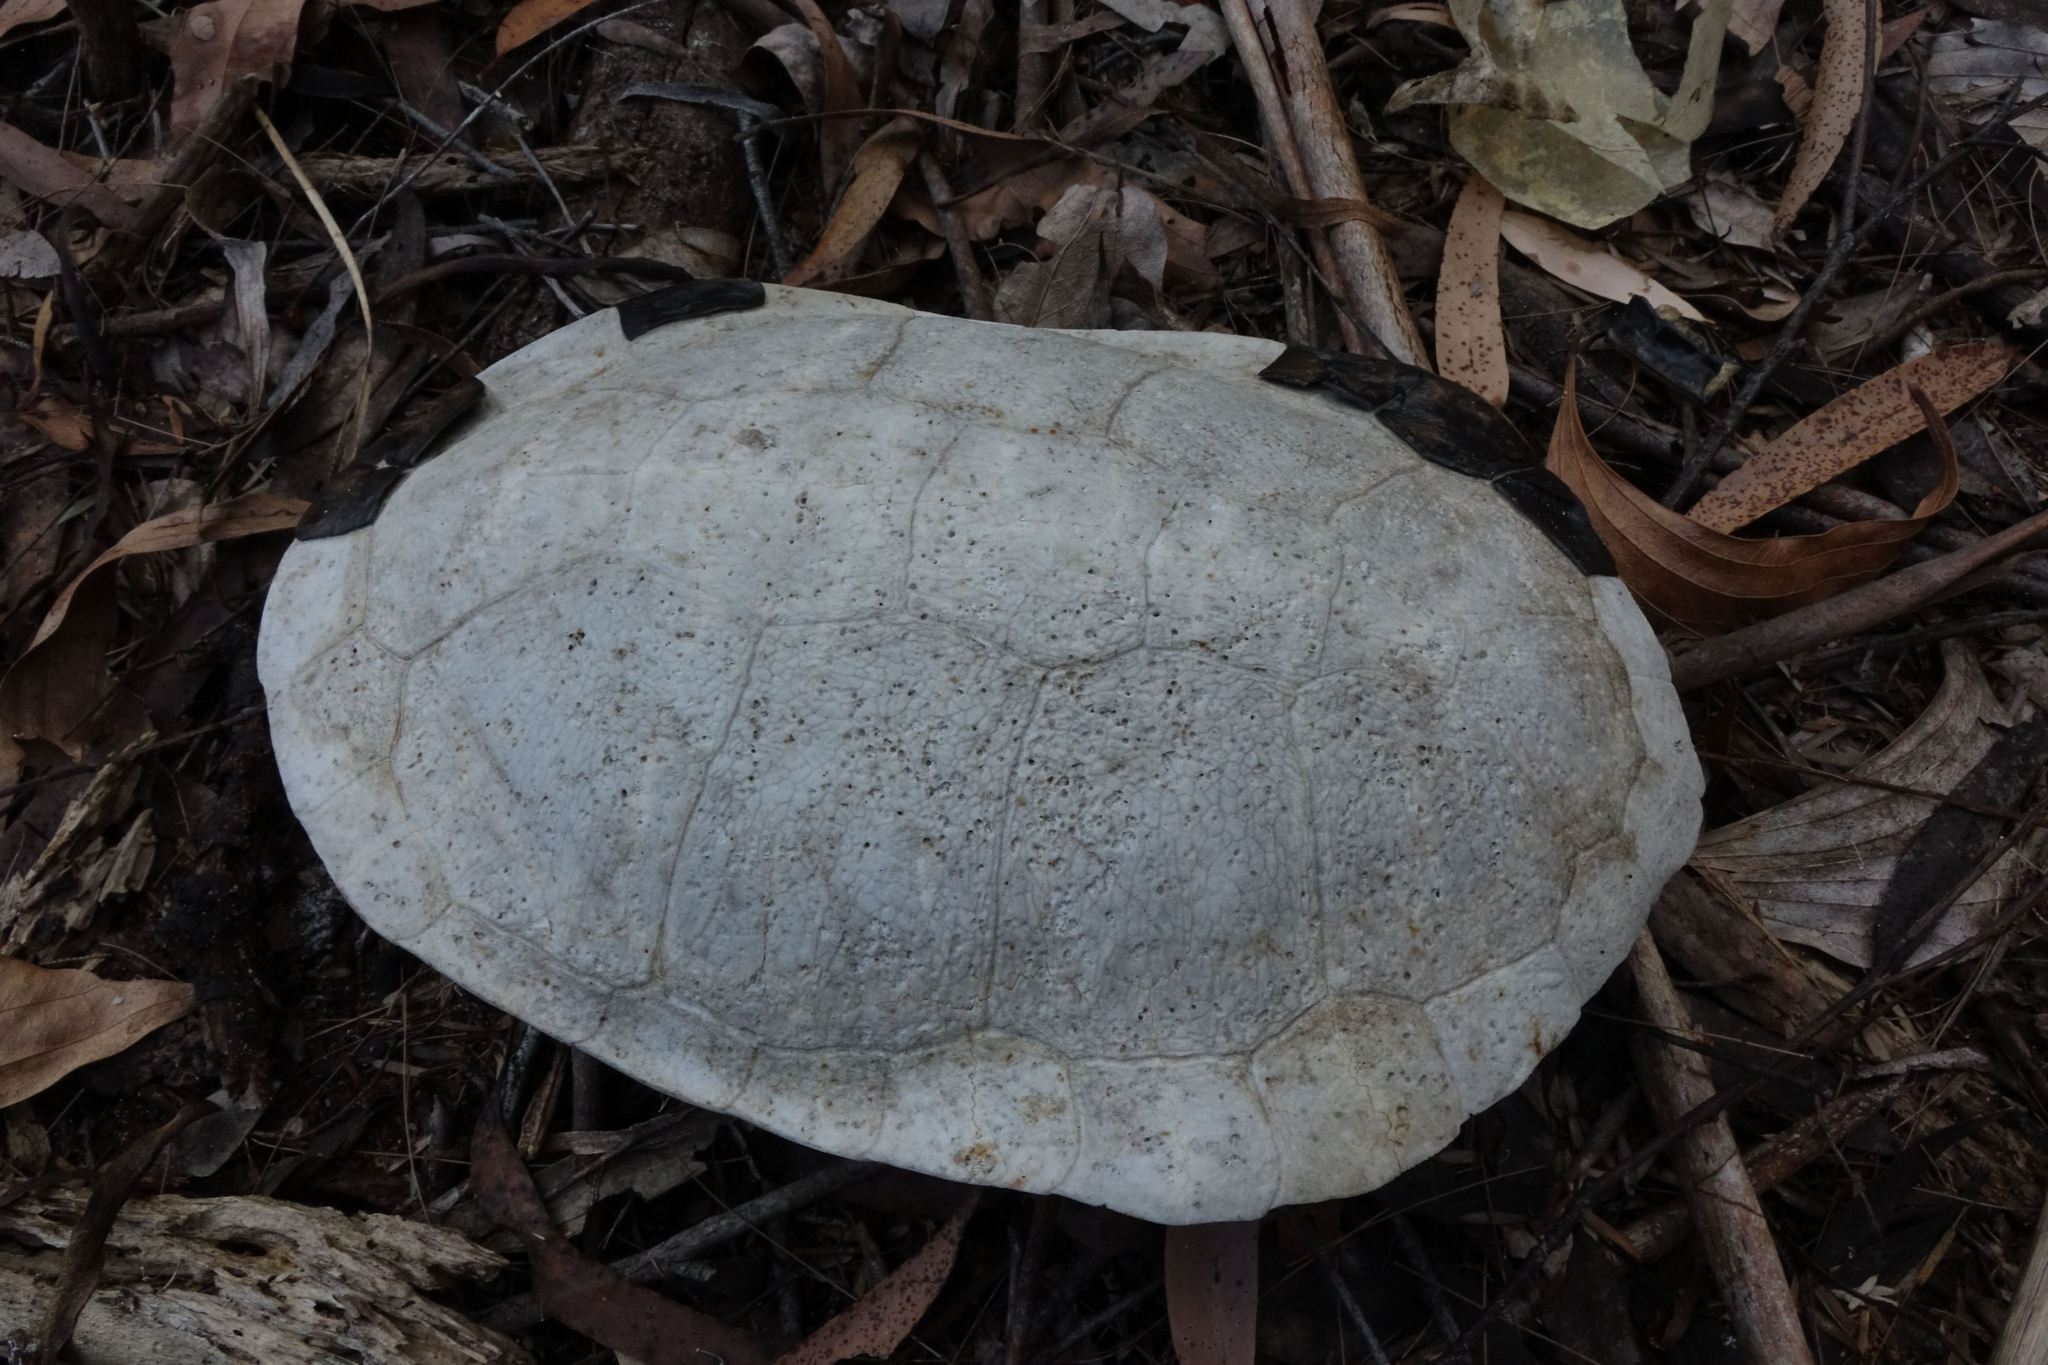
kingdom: Animalia
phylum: Chordata
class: Testudines
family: Chelidae
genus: Chelodina
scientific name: Chelodina expansa
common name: Giant snakeneck turtle
